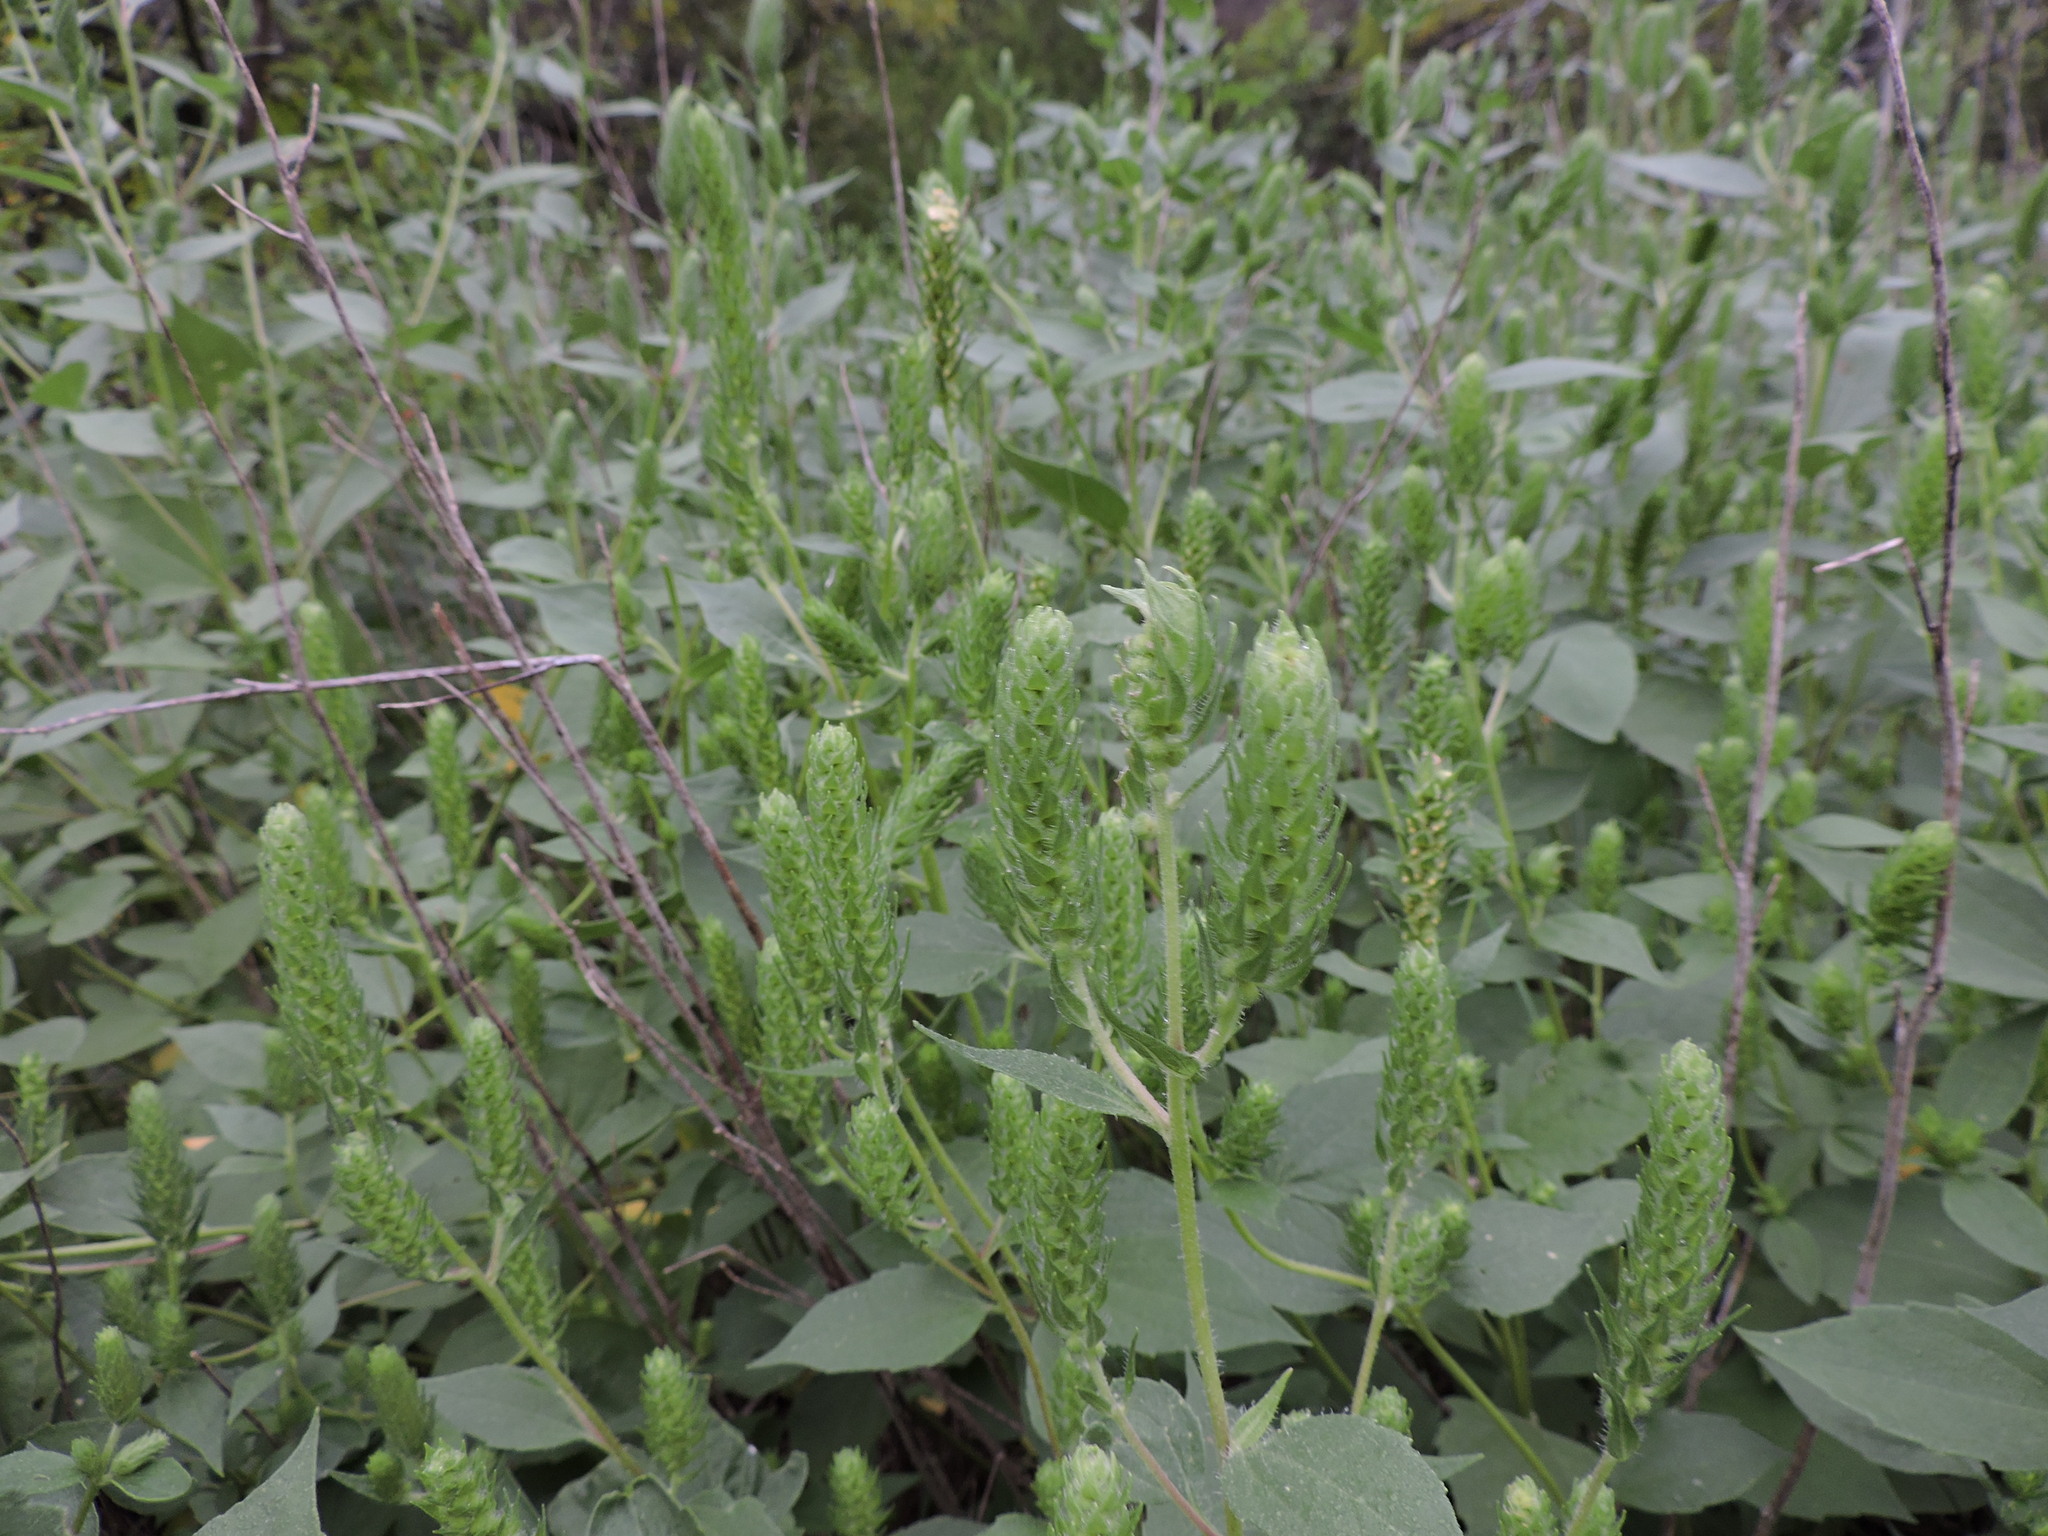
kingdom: Plantae
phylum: Tracheophyta
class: Magnoliopsida
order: Asterales
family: Asteraceae
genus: Iva
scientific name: Iva annua
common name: Marsh-elder
